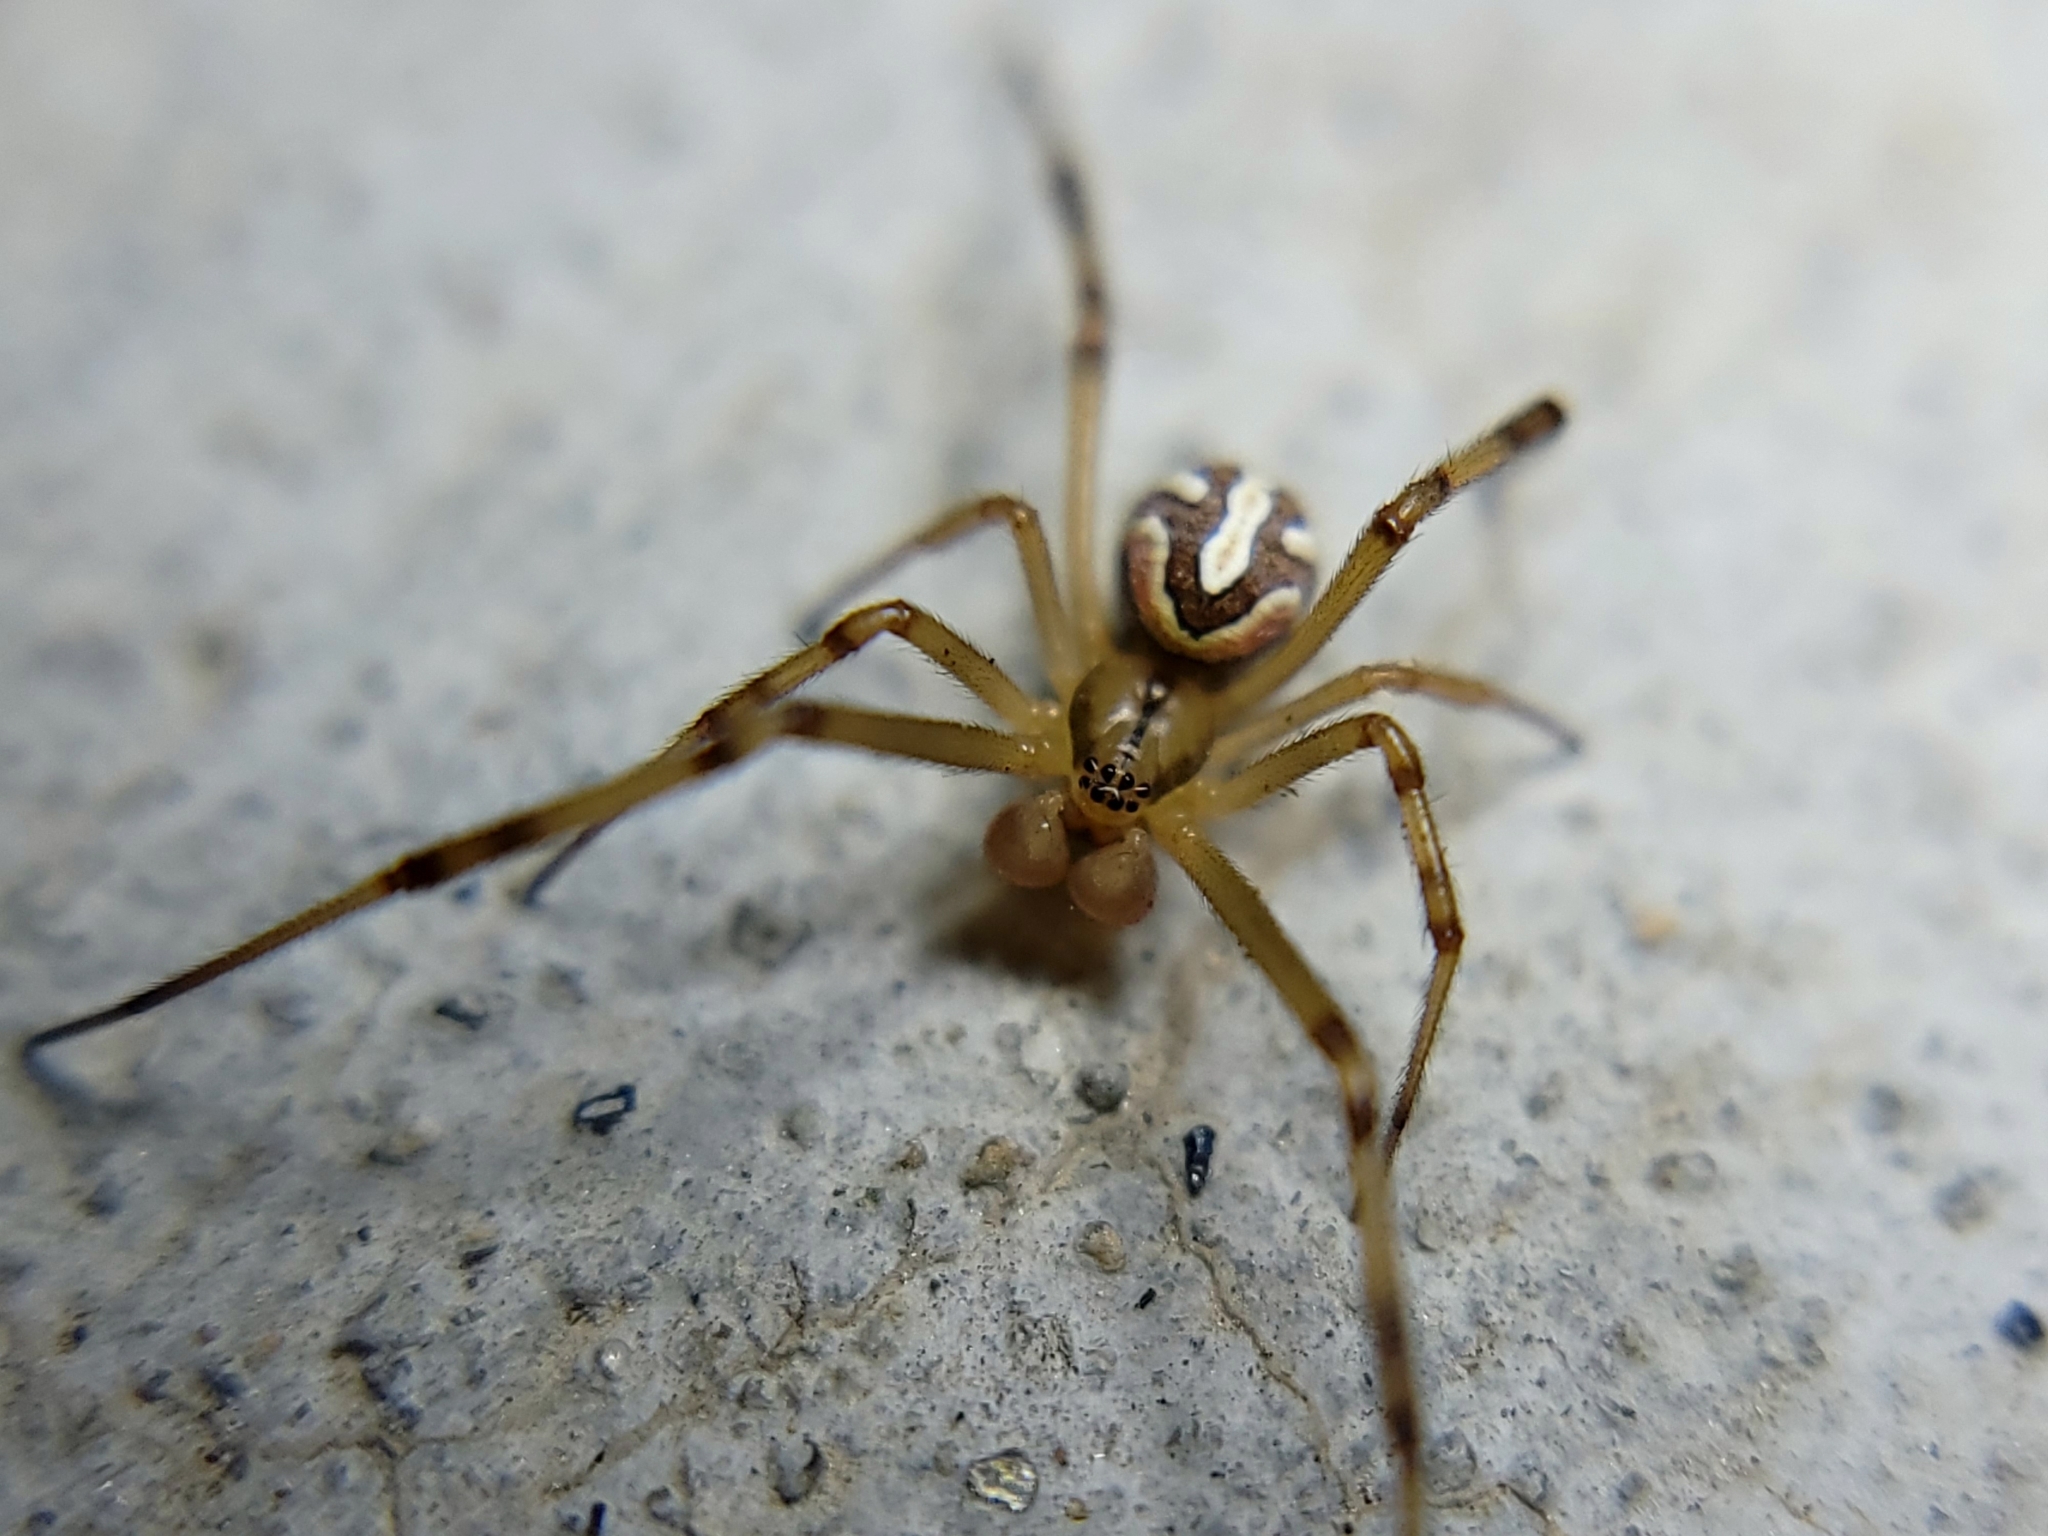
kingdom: Animalia
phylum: Arthropoda
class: Arachnida
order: Araneae
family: Theridiidae
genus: Latrodectus
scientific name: Latrodectus hesperus
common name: Western black widow
